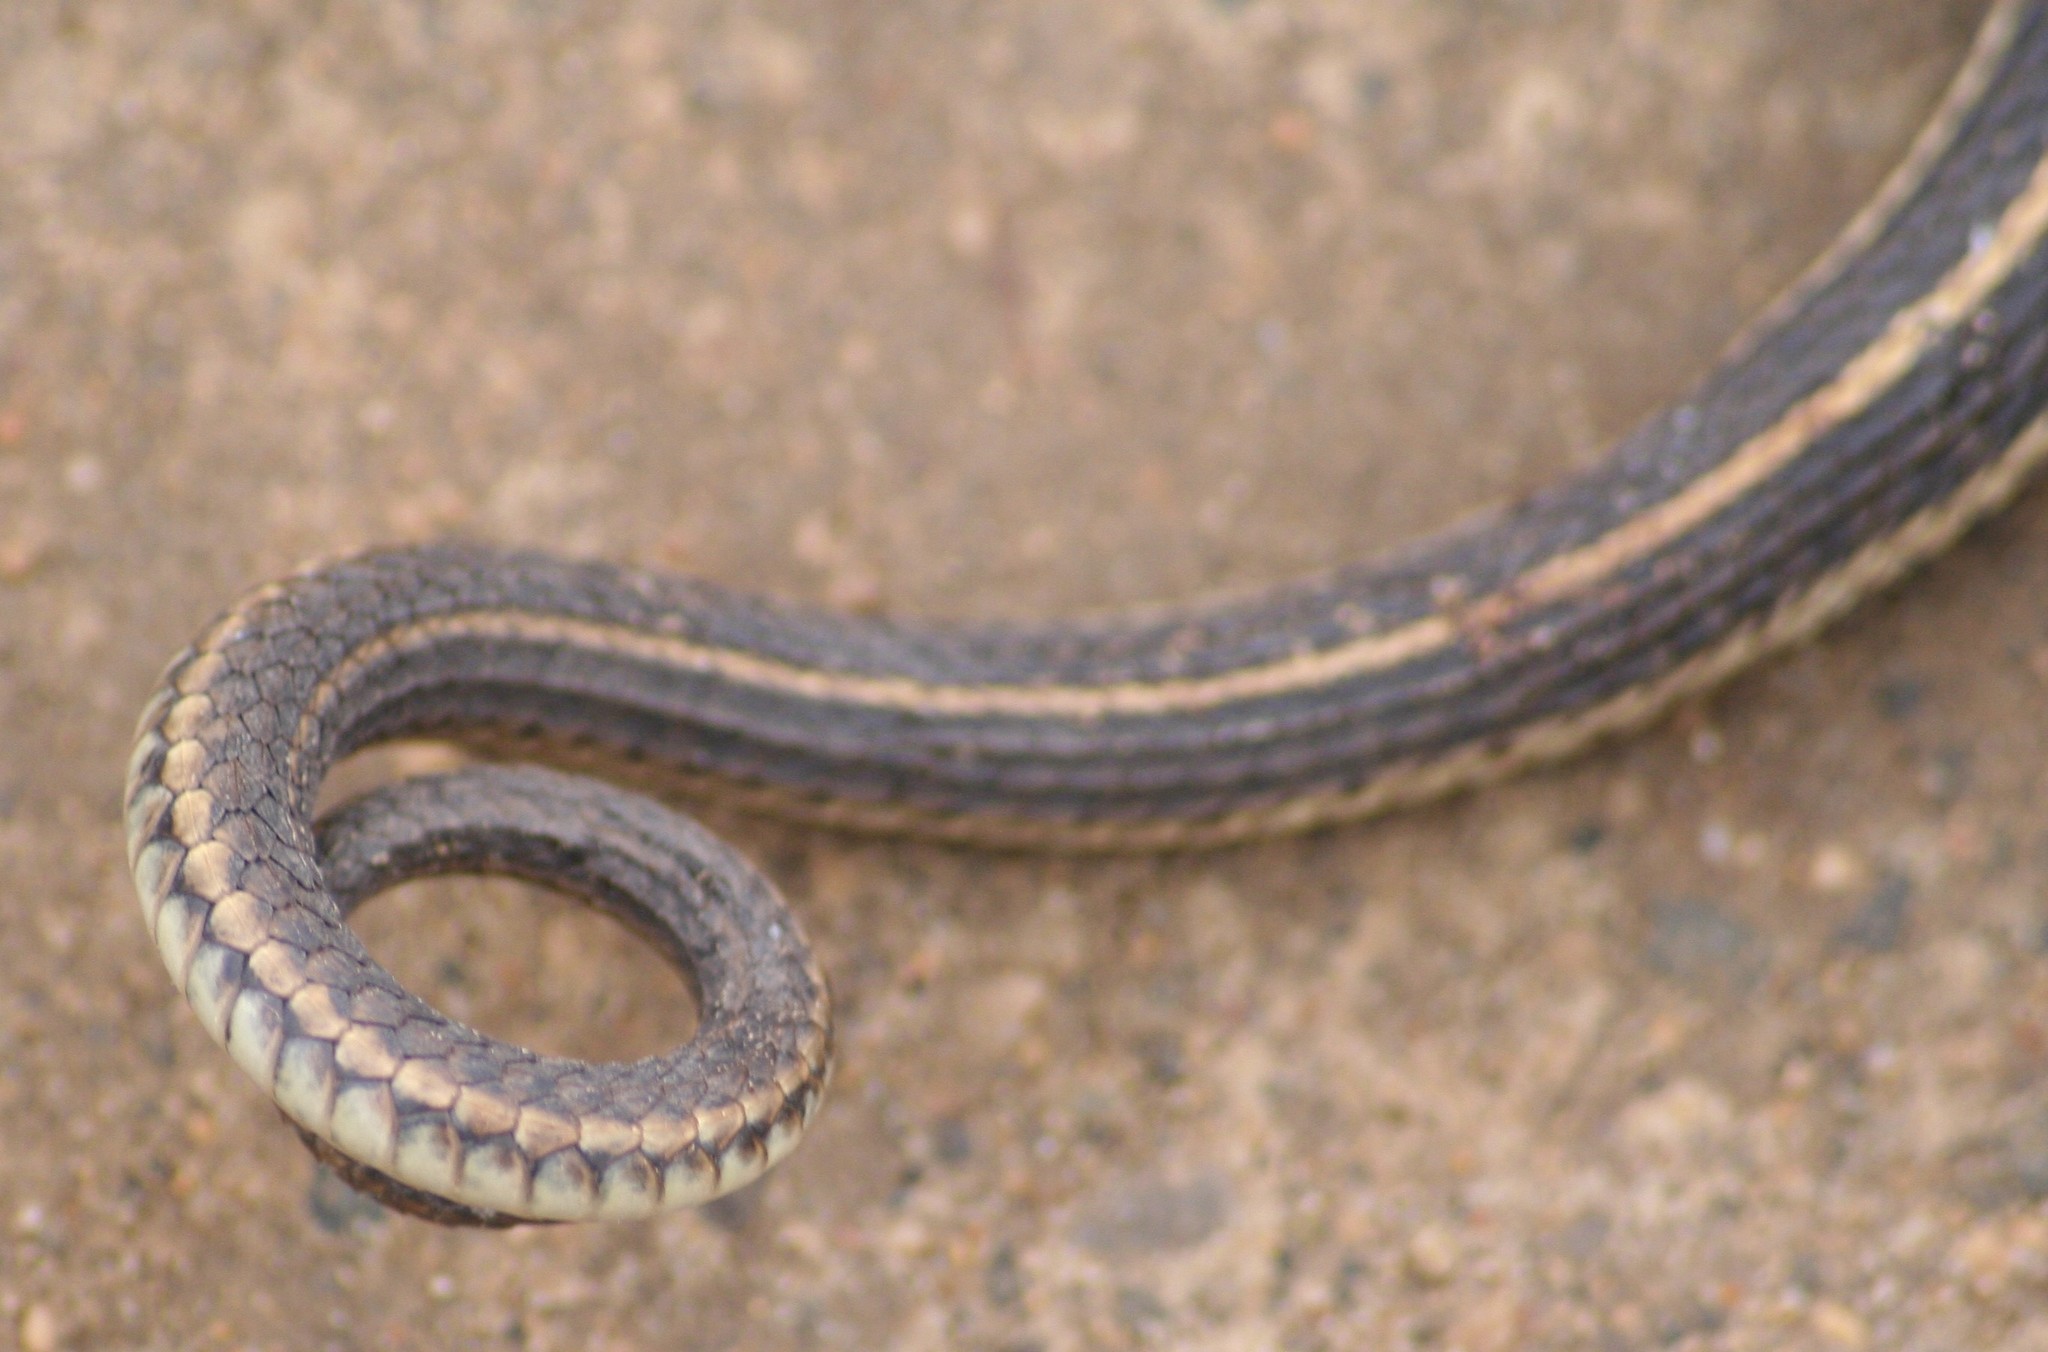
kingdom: Animalia
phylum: Chordata
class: Squamata
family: Colubridae
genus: Thamnophis
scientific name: Thamnophis radix
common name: Plains garter snake
